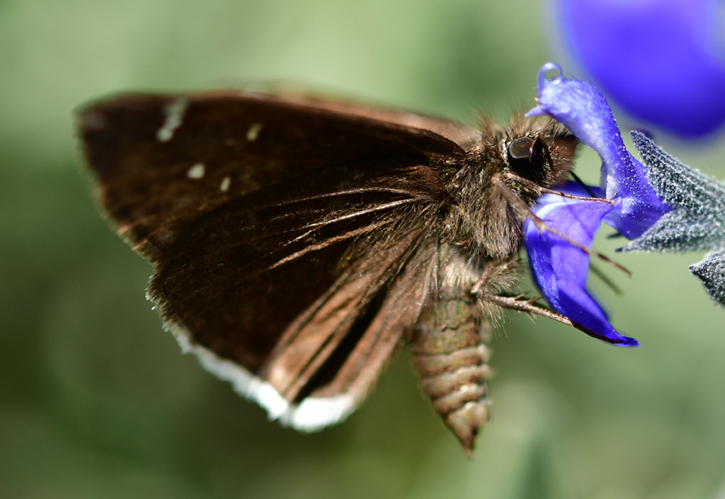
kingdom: Animalia
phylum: Arthropoda
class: Insecta
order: Lepidoptera
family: Hesperiidae
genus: Erynnis
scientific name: Erynnis tristis
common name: Mournful duskywing
